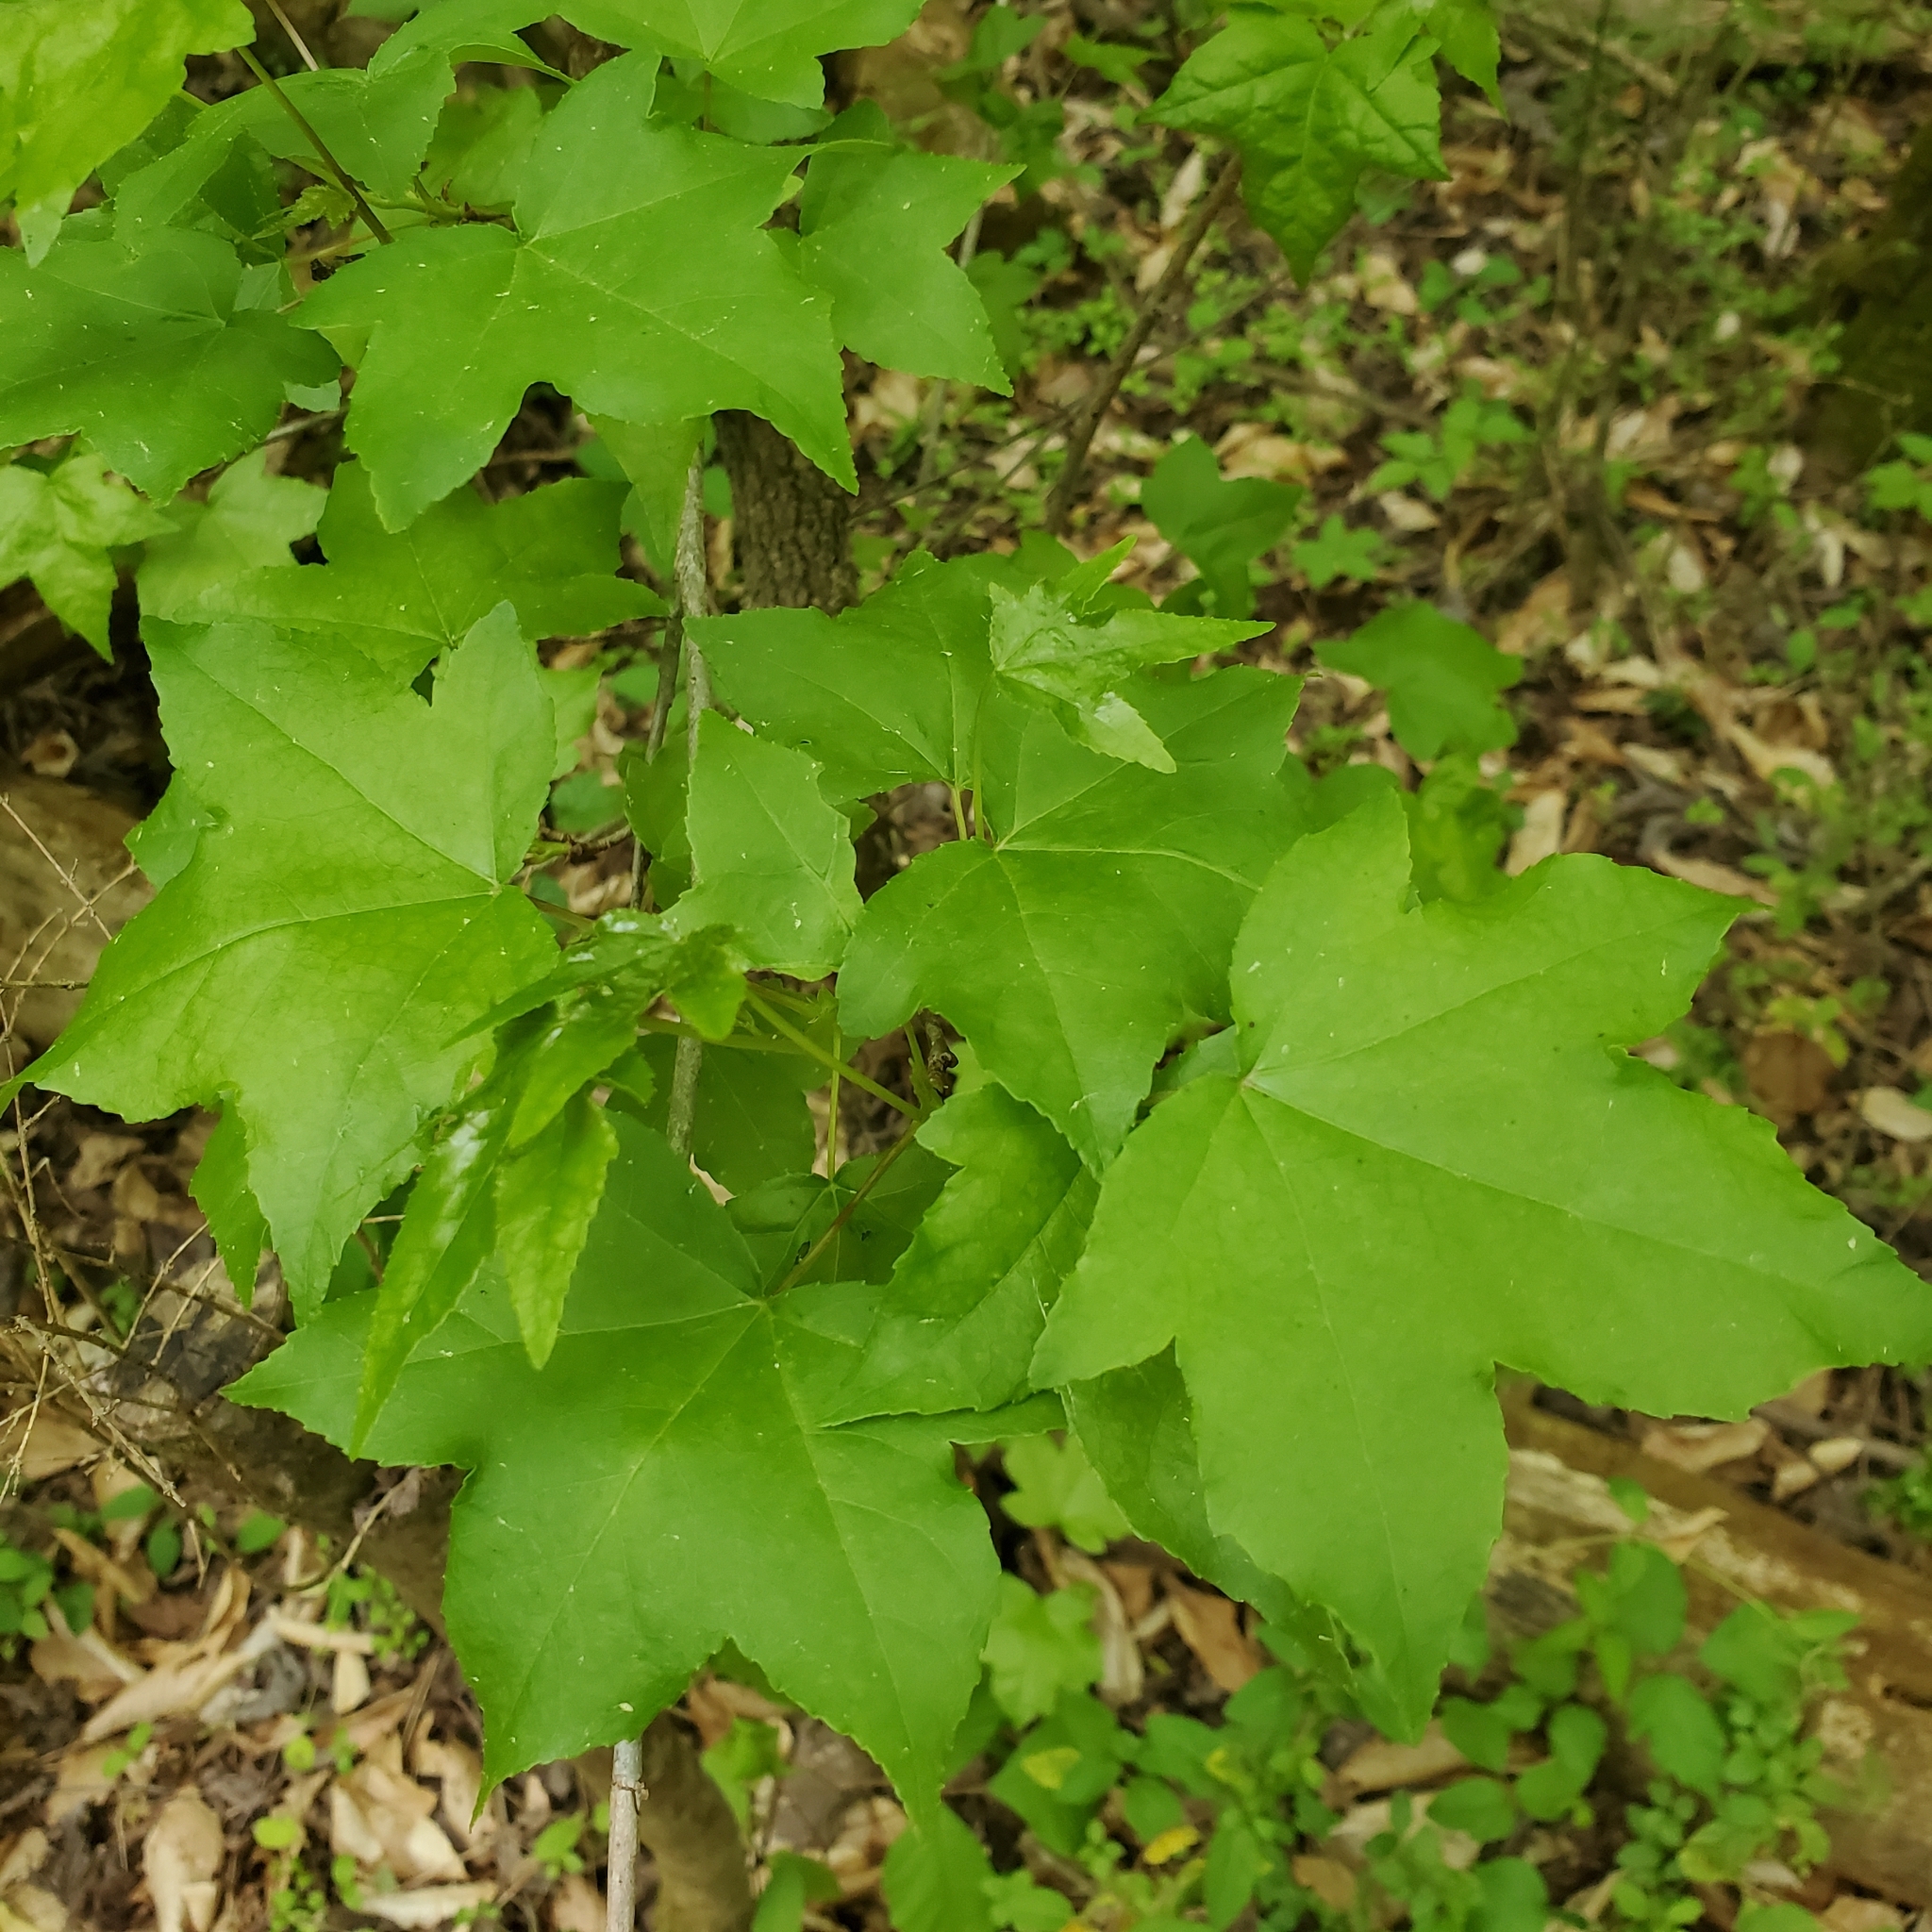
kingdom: Plantae
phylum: Tracheophyta
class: Magnoliopsida
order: Saxifragales
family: Altingiaceae
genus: Liquidambar
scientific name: Liquidambar styraciflua
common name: Sweet gum
